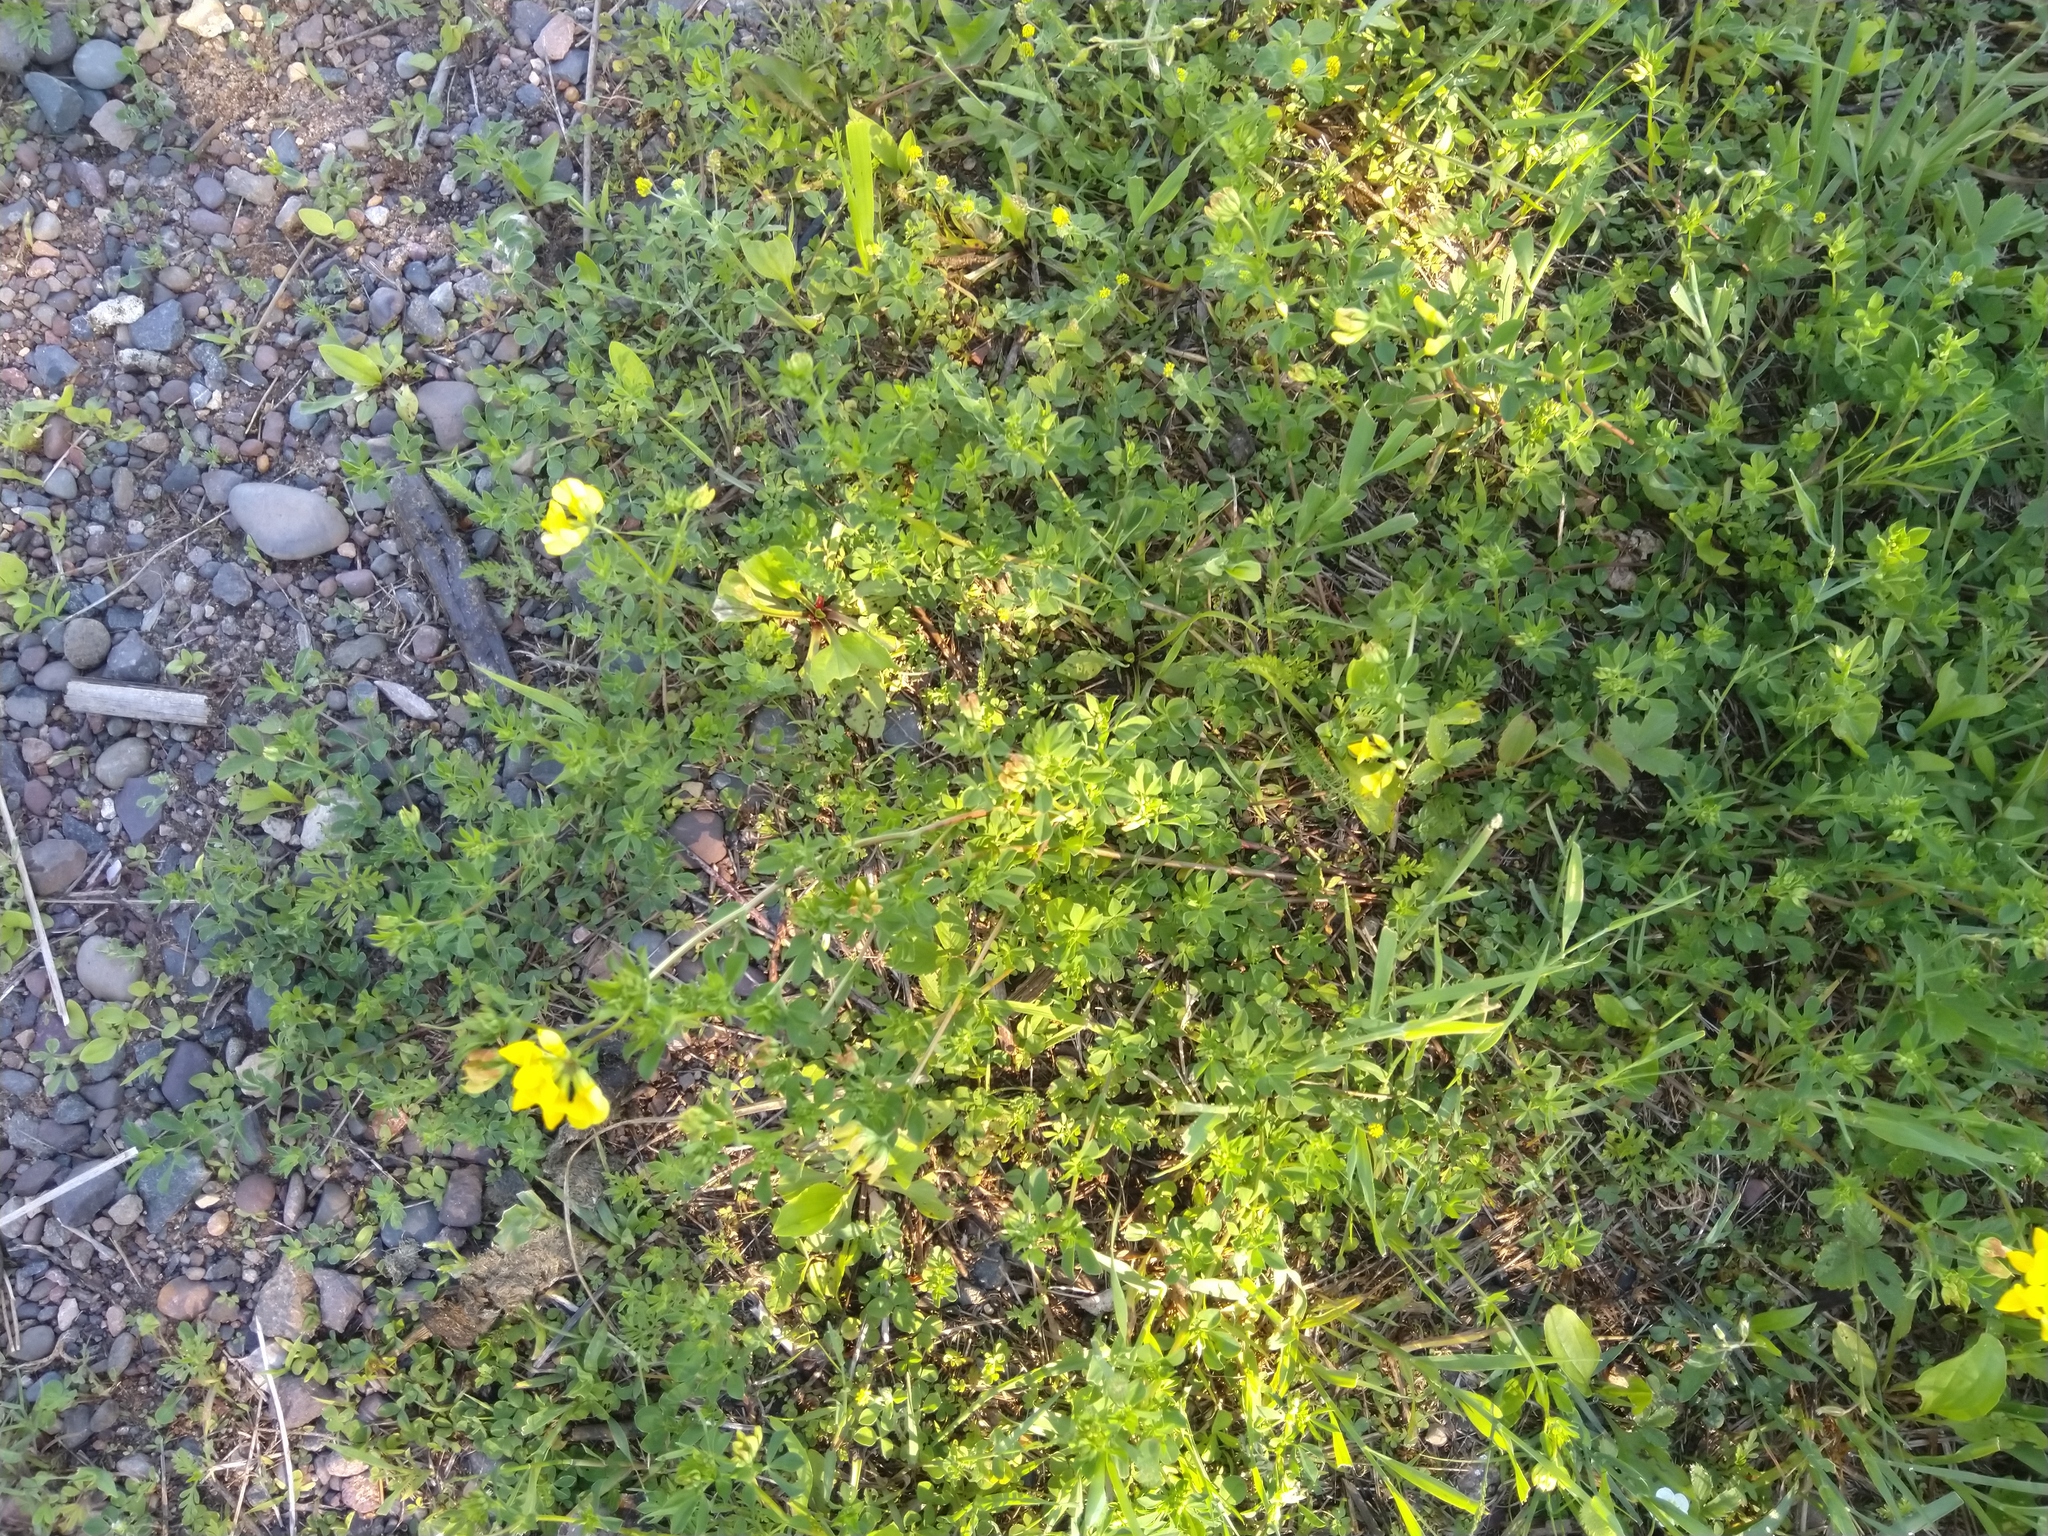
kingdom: Plantae
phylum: Tracheophyta
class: Magnoliopsida
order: Fabales
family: Fabaceae
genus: Lotus
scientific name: Lotus corniculatus
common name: Common bird's-foot-trefoil
